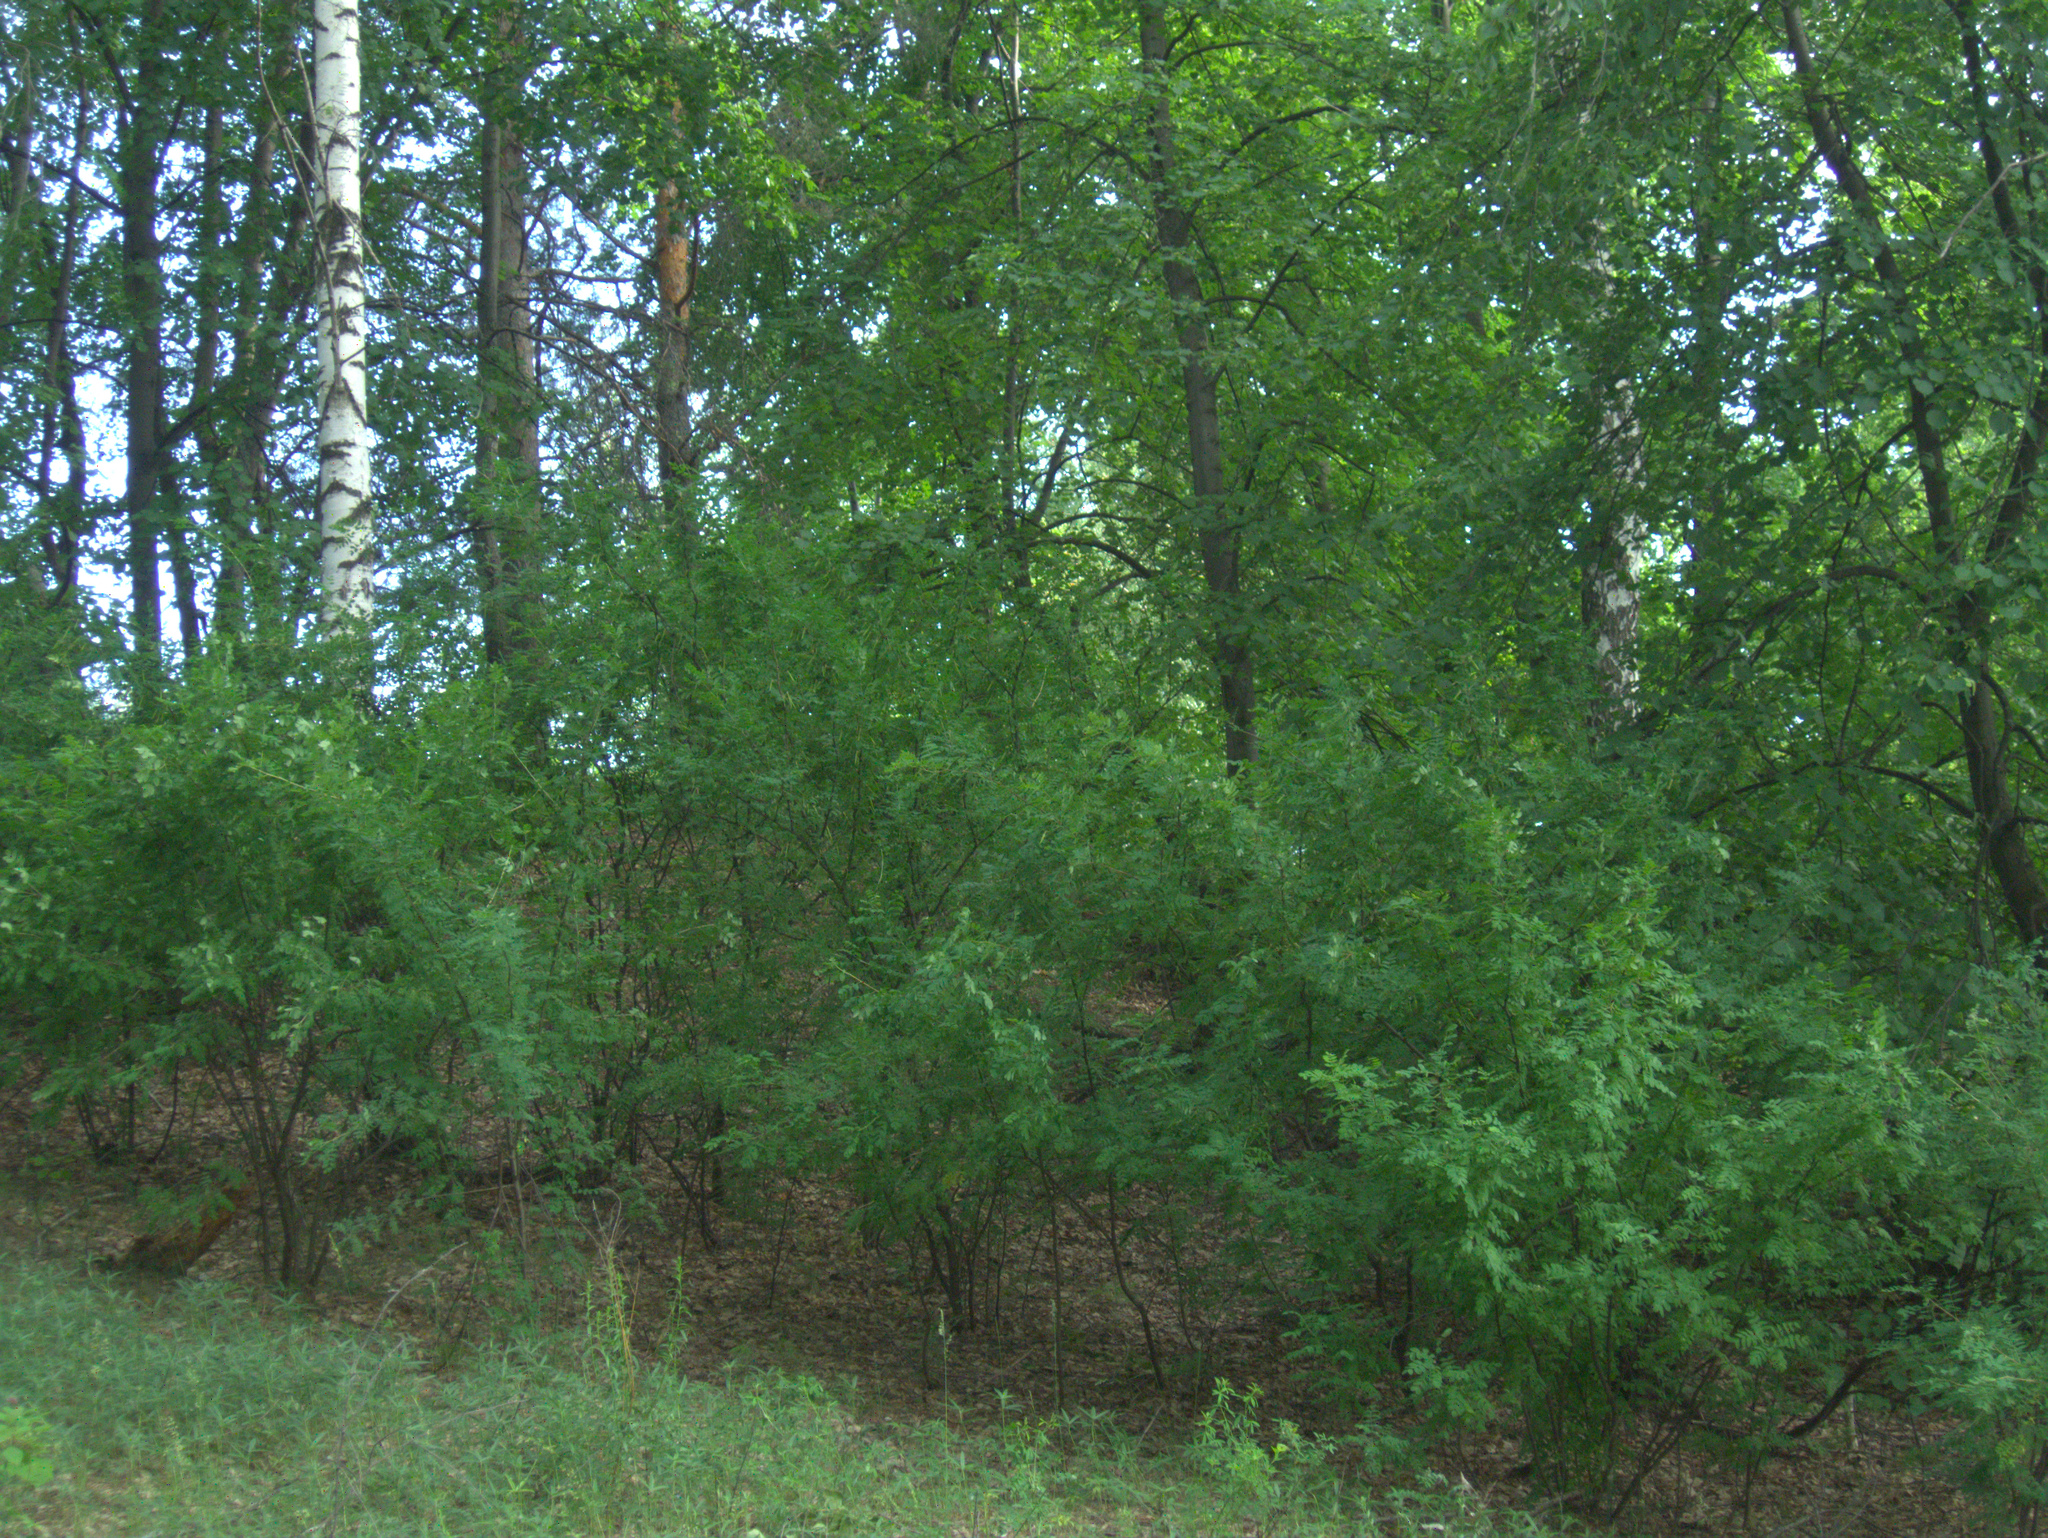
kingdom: Plantae
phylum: Tracheophyta
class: Magnoliopsida
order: Fabales
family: Fabaceae
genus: Caragana
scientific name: Caragana arborescens
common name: Siberian peashrub
